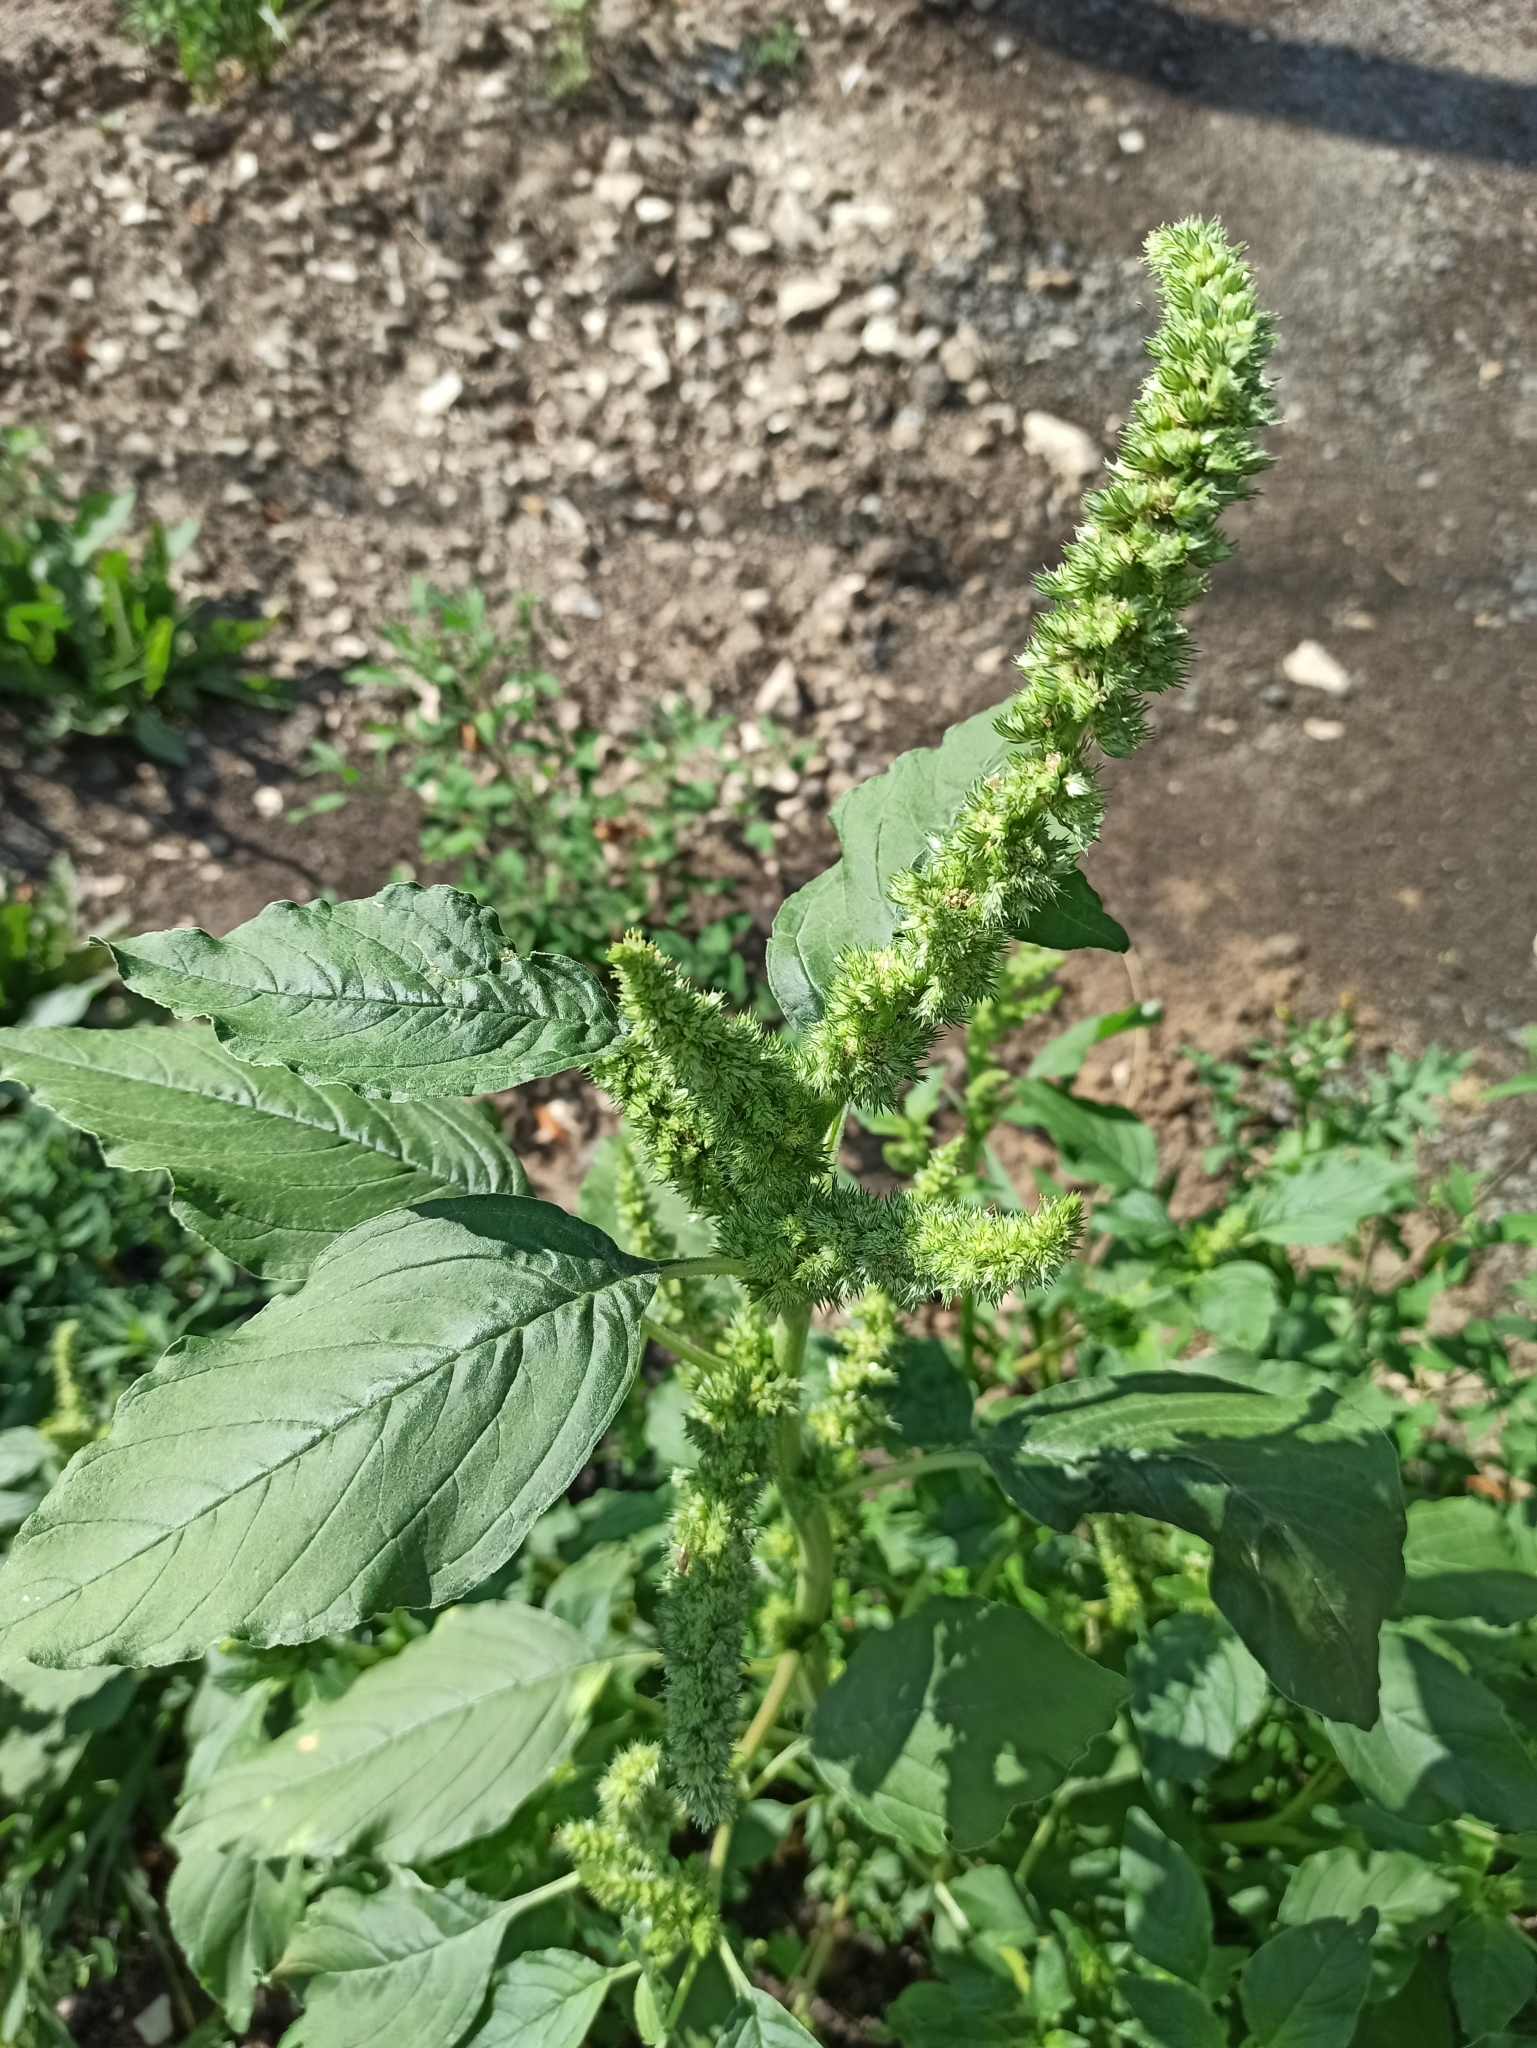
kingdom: Plantae
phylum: Tracheophyta
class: Magnoliopsida
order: Caryophyllales
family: Amaranthaceae
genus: Amaranthus
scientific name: Amaranthus retroflexus
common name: Redroot amaranth
